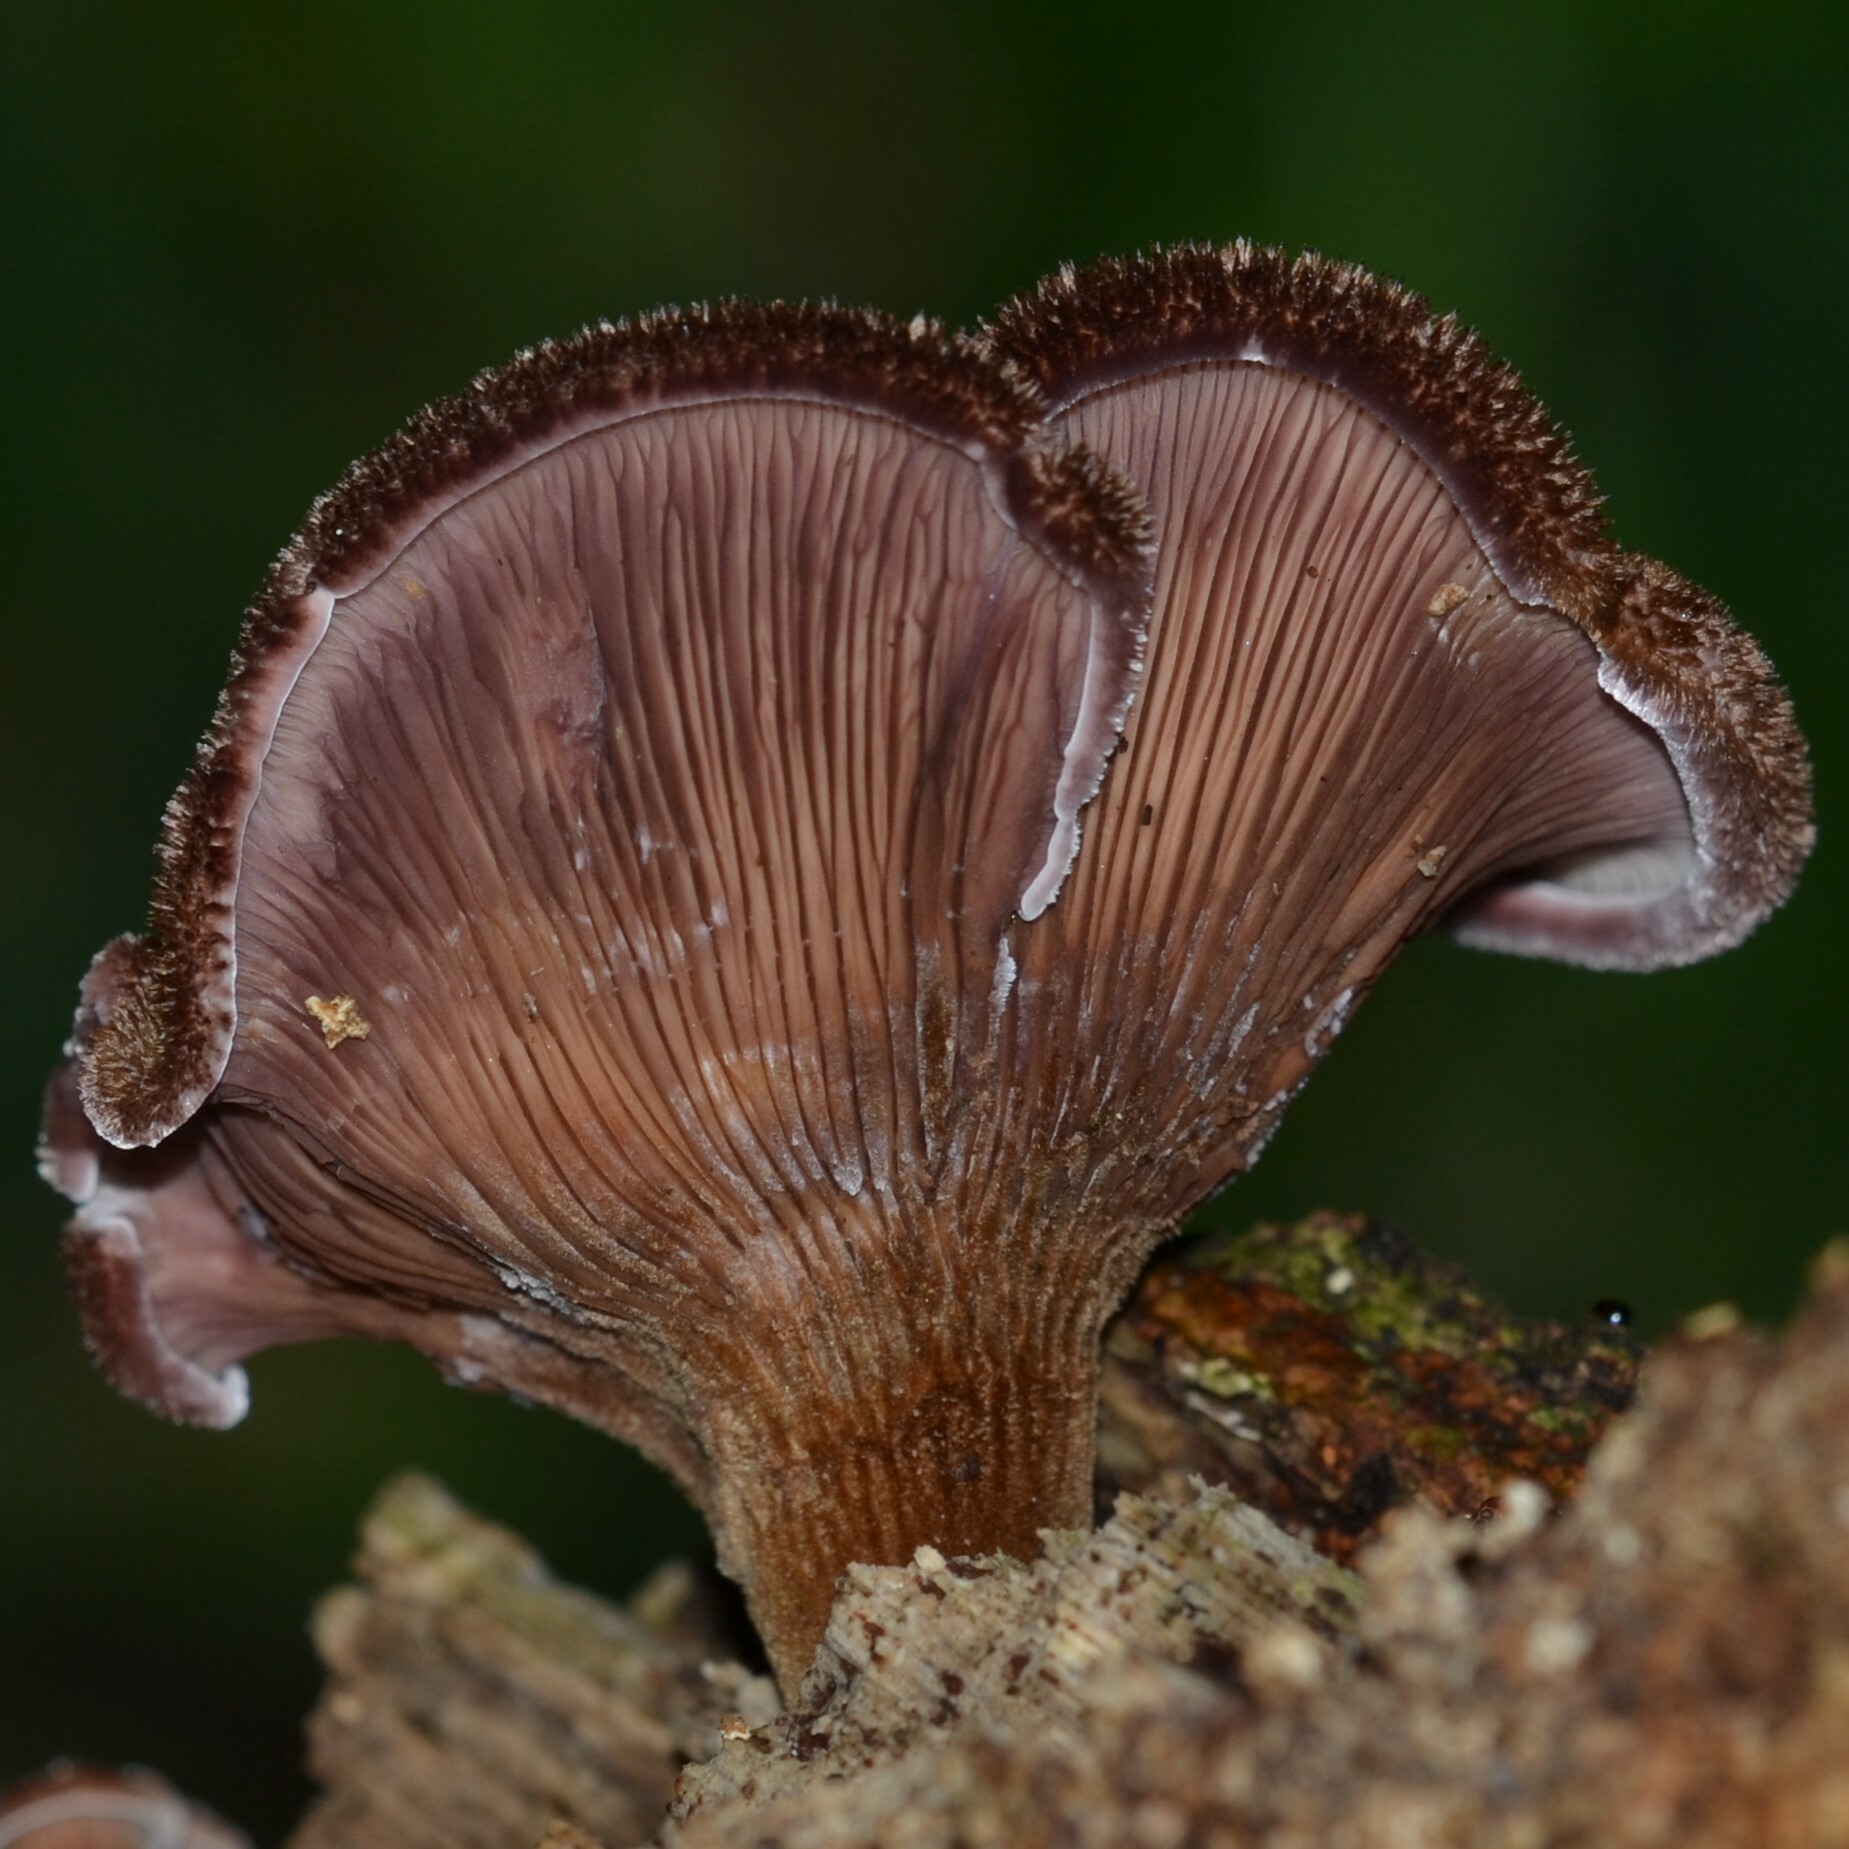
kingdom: Fungi
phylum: Basidiomycota
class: Agaricomycetes
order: Polyporales
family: Panaceae
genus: Panus
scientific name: Panus neostrigosus
